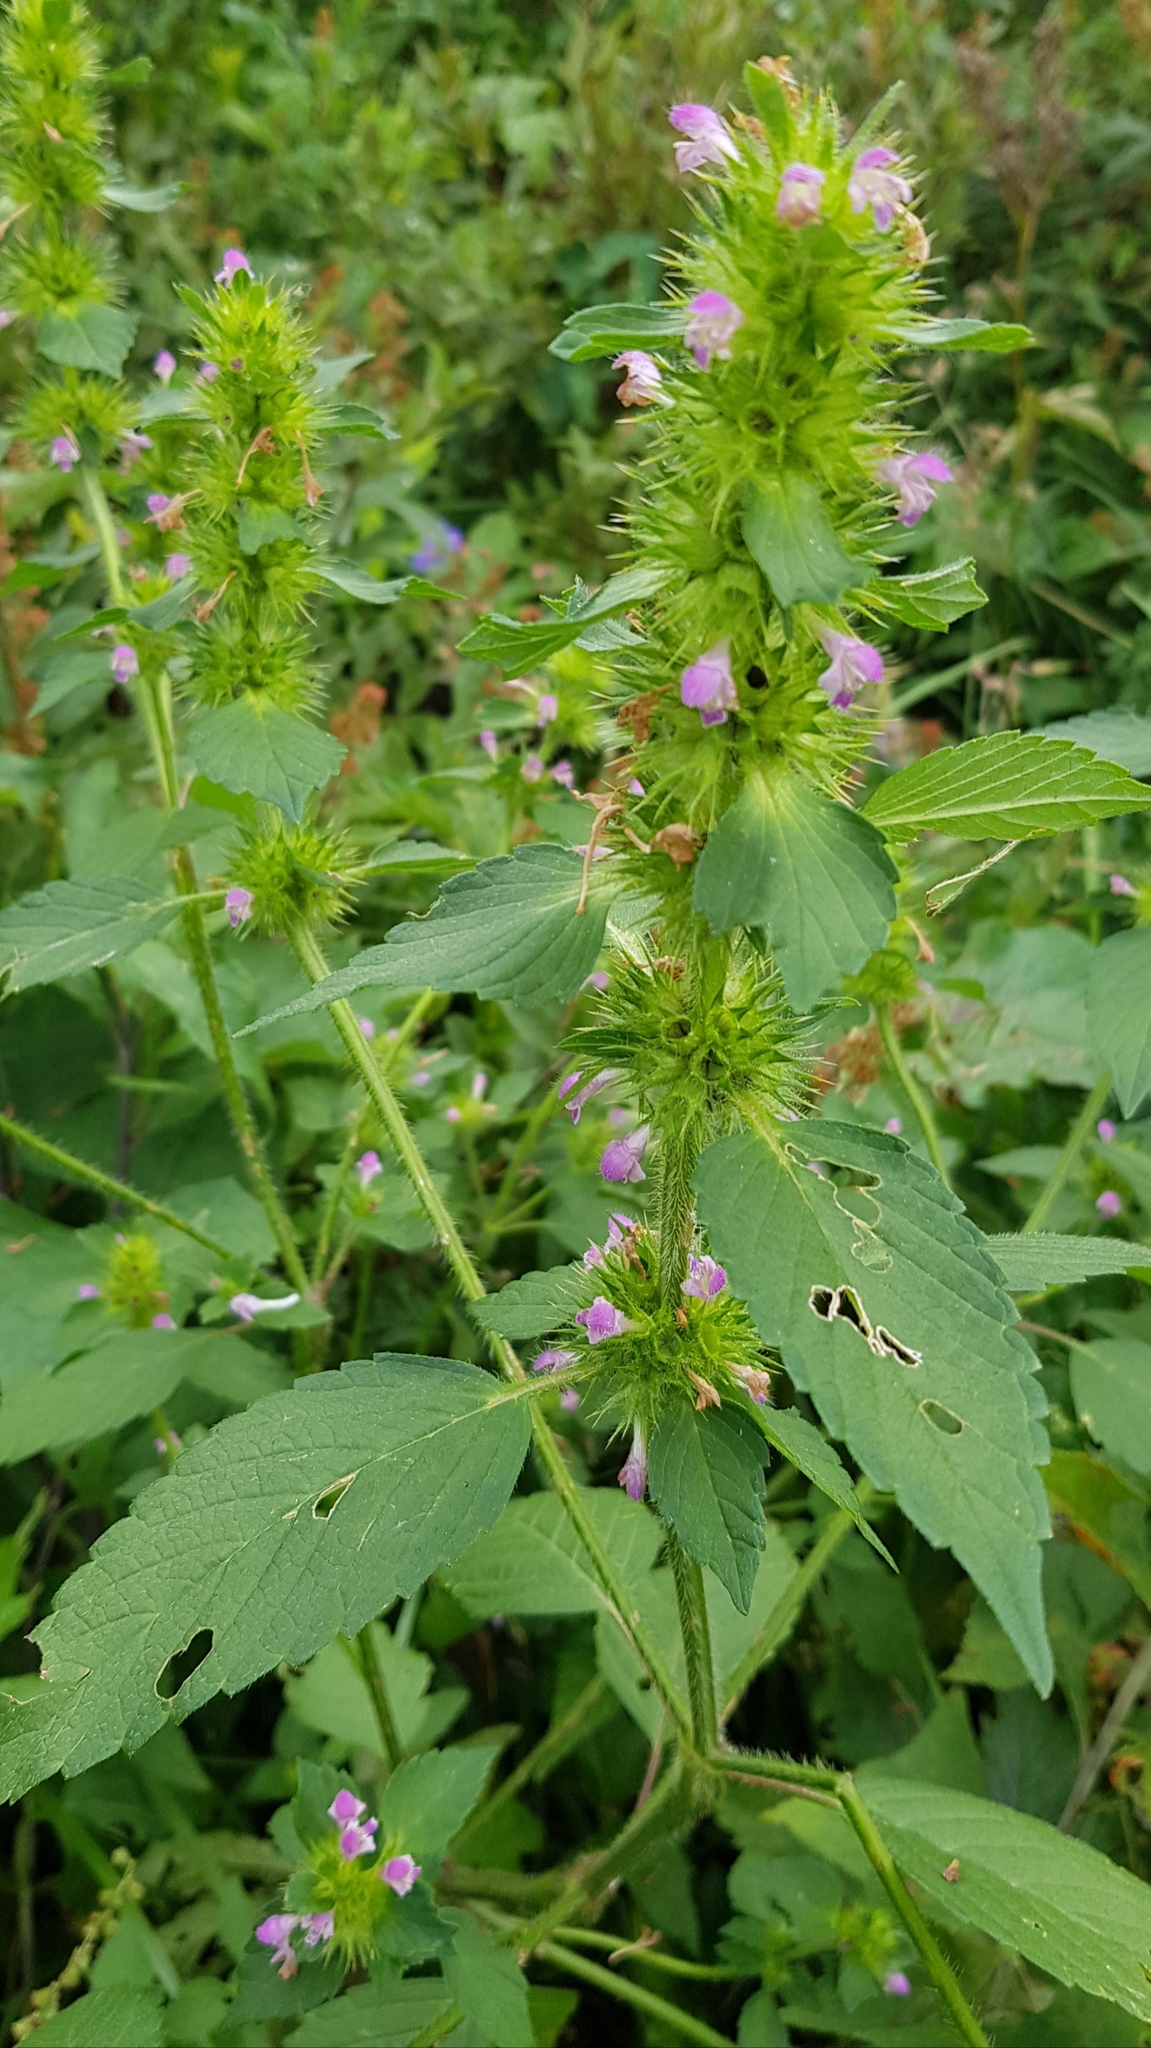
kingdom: Plantae
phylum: Tracheophyta
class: Magnoliopsida
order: Lamiales
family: Lamiaceae
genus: Galeopsis
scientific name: Galeopsis bifida
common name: Bifid hemp-nettle
